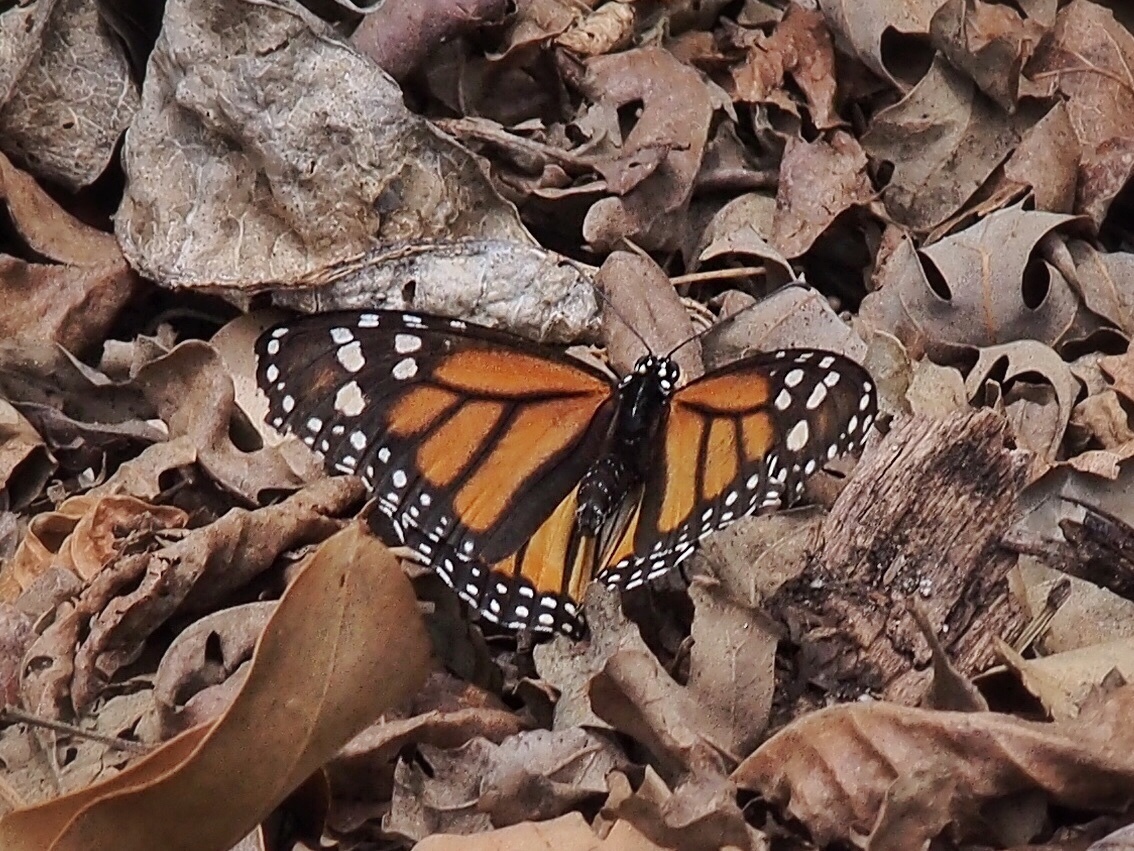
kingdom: Animalia
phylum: Arthropoda
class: Insecta
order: Lepidoptera
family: Nymphalidae
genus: Danaus
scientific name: Danaus plexippus
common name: Monarch
